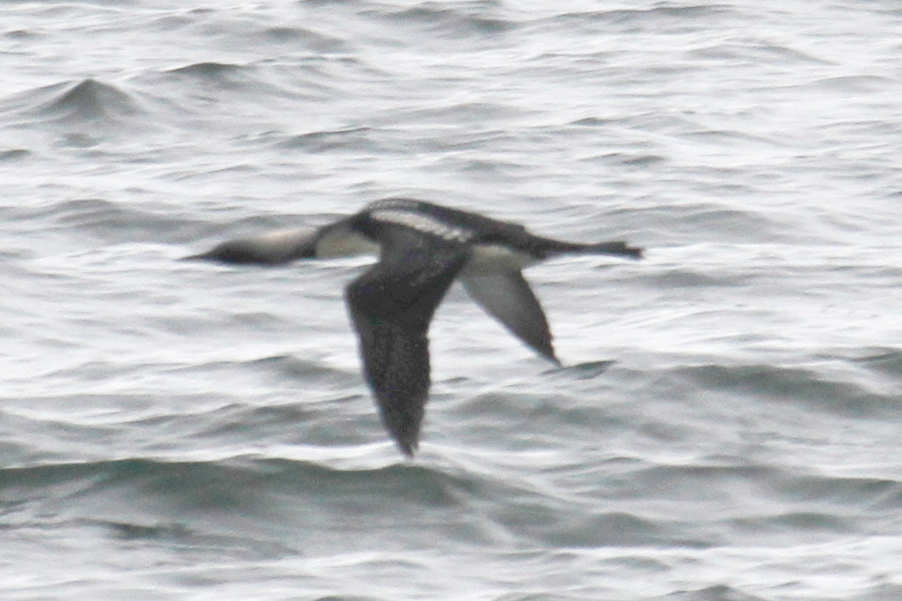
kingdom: Animalia
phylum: Chordata
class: Aves
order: Gaviiformes
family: Gaviidae
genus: Gavia
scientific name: Gavia pacifica
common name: Pacific loon
